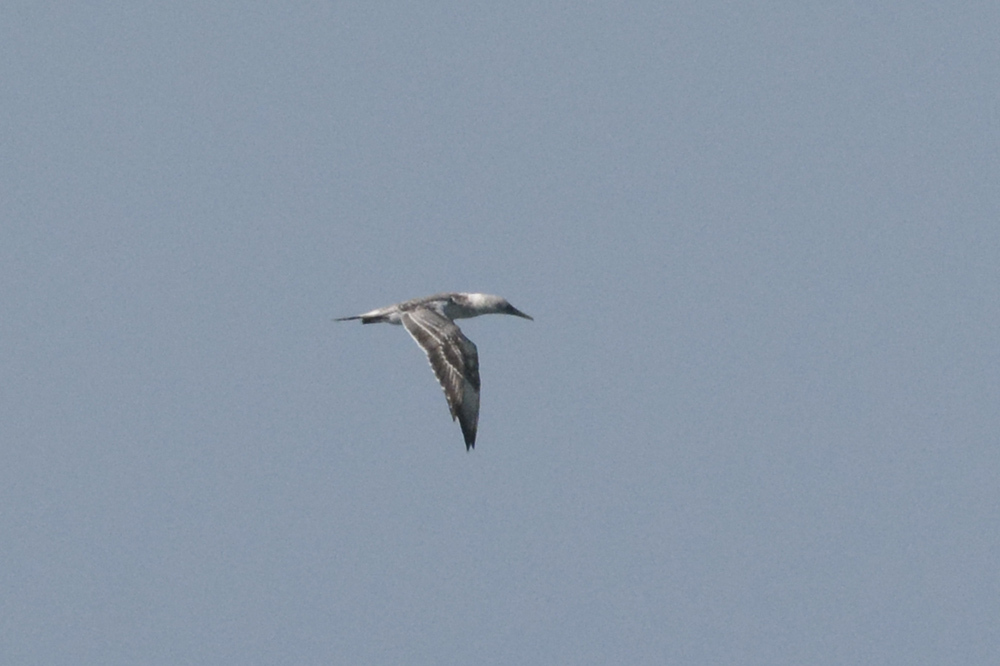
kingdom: Animalia
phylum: Chordata
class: Aves
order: Suliformes
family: Sulidae
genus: Morus
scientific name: Morus serrator
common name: Australasian gannet
